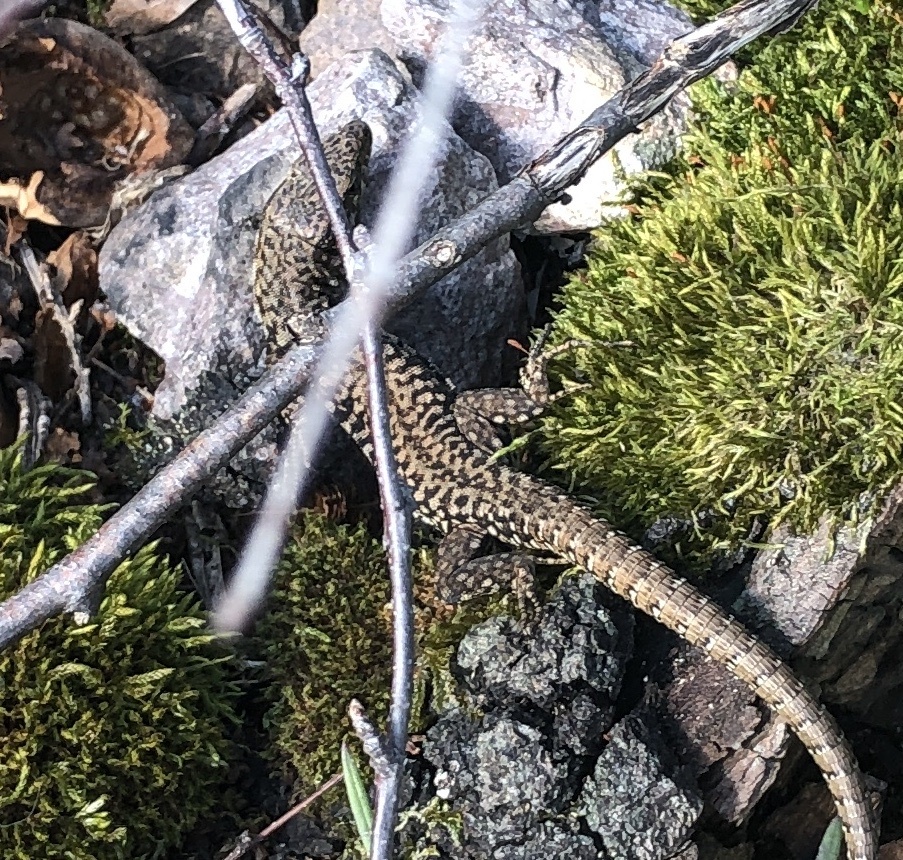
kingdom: Animalia
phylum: Chordata
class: Squamata
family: Lacertidae
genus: Podarcis
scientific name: Podarcis muralis
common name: Common wall lizard
